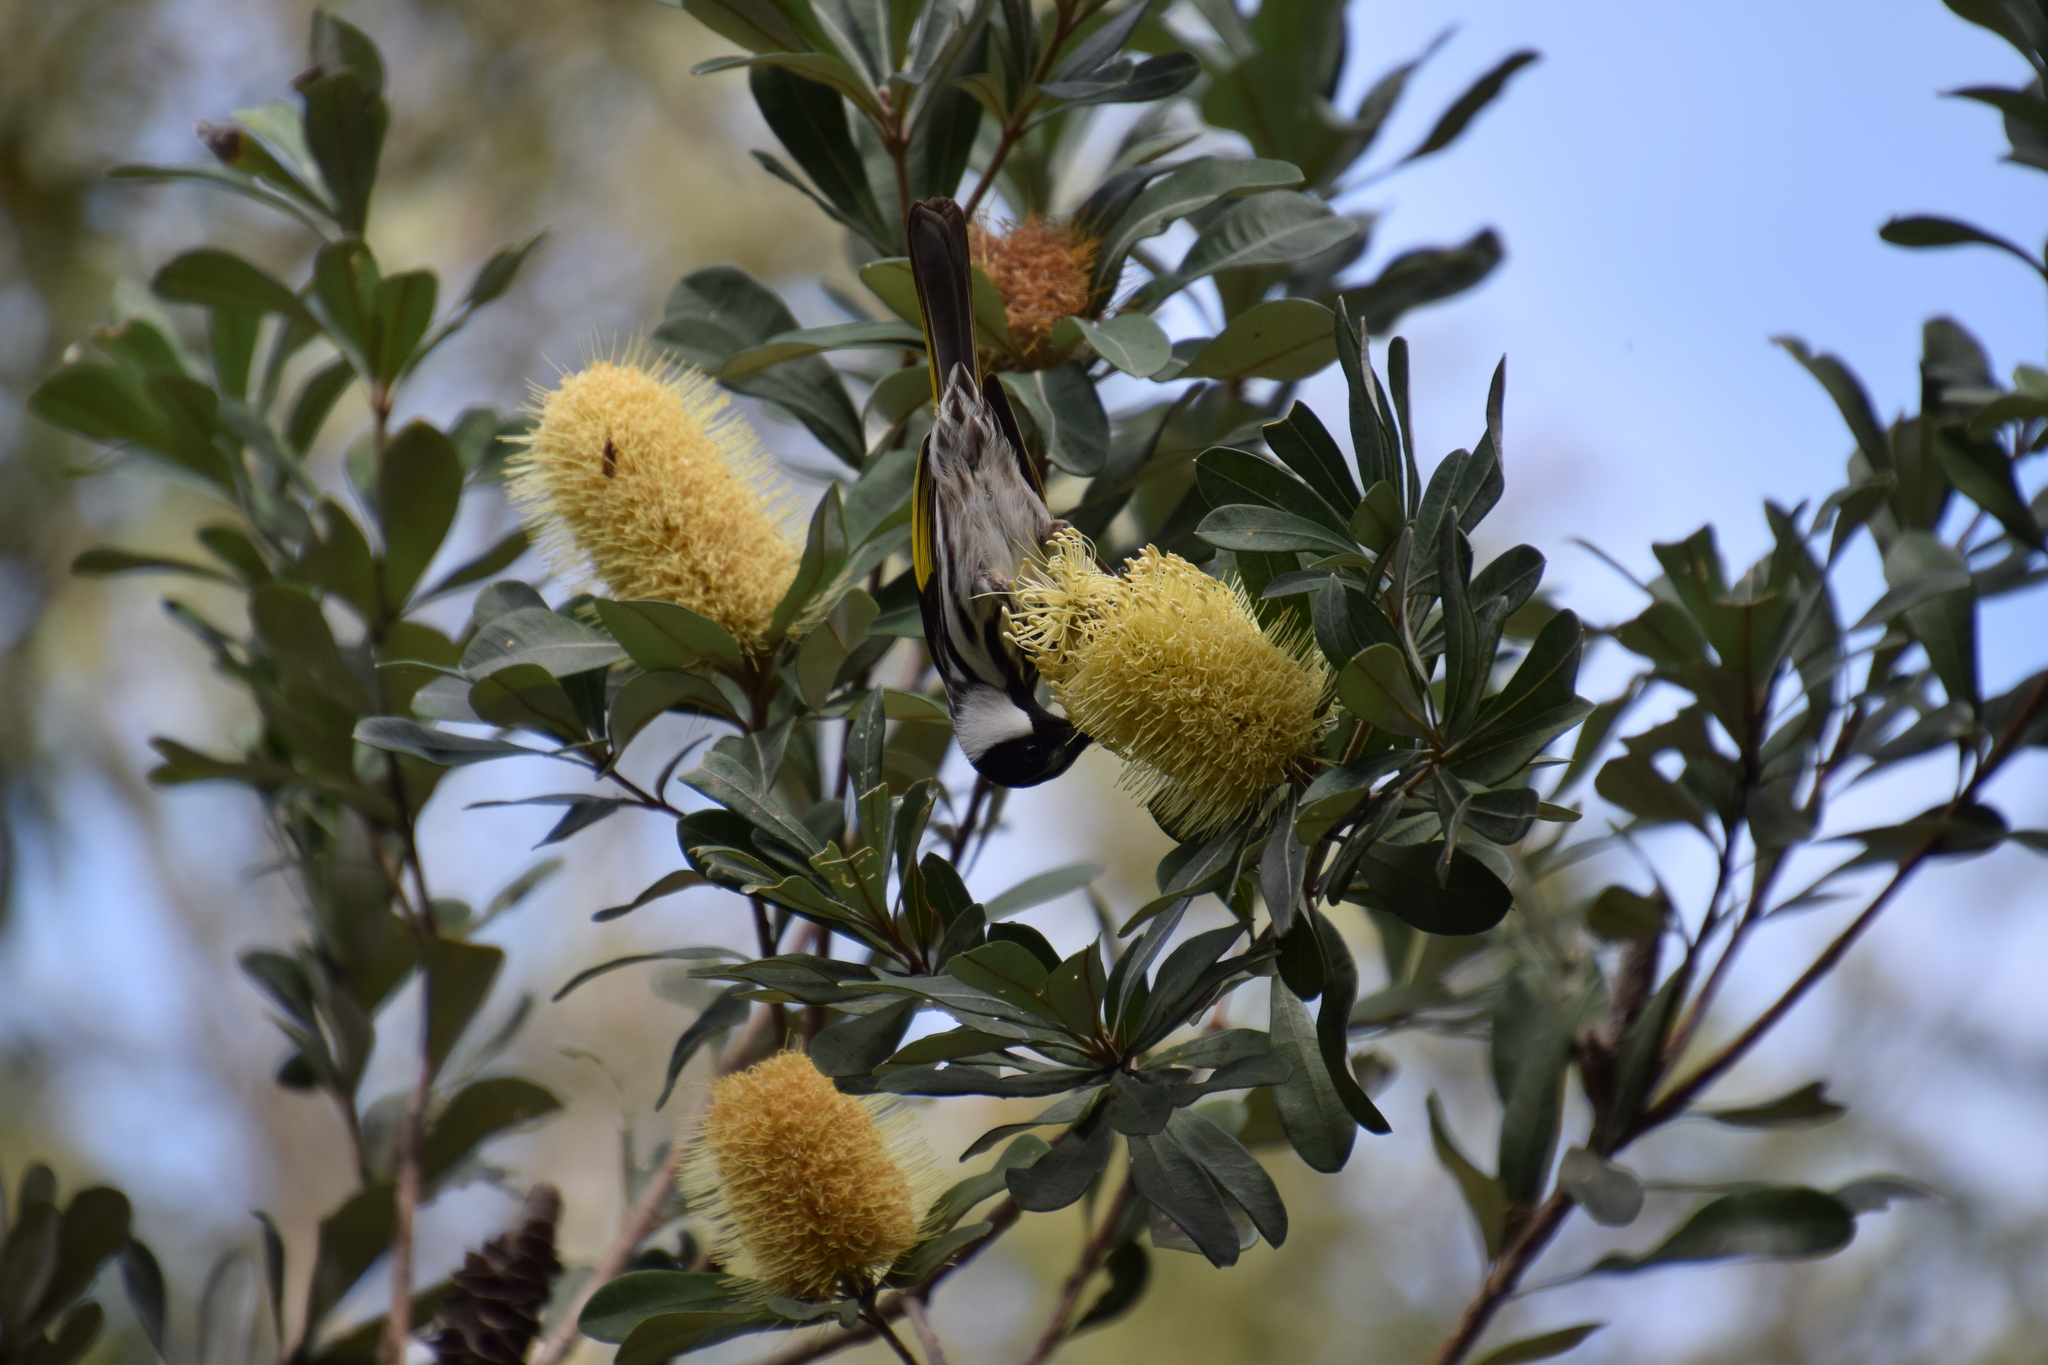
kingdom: Animalia
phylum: Chordata
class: Aves
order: Passeriformes
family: Meliphagidae
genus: Phylidonyris
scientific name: Phylidonyris niger
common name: White-cheeked honeyeater
